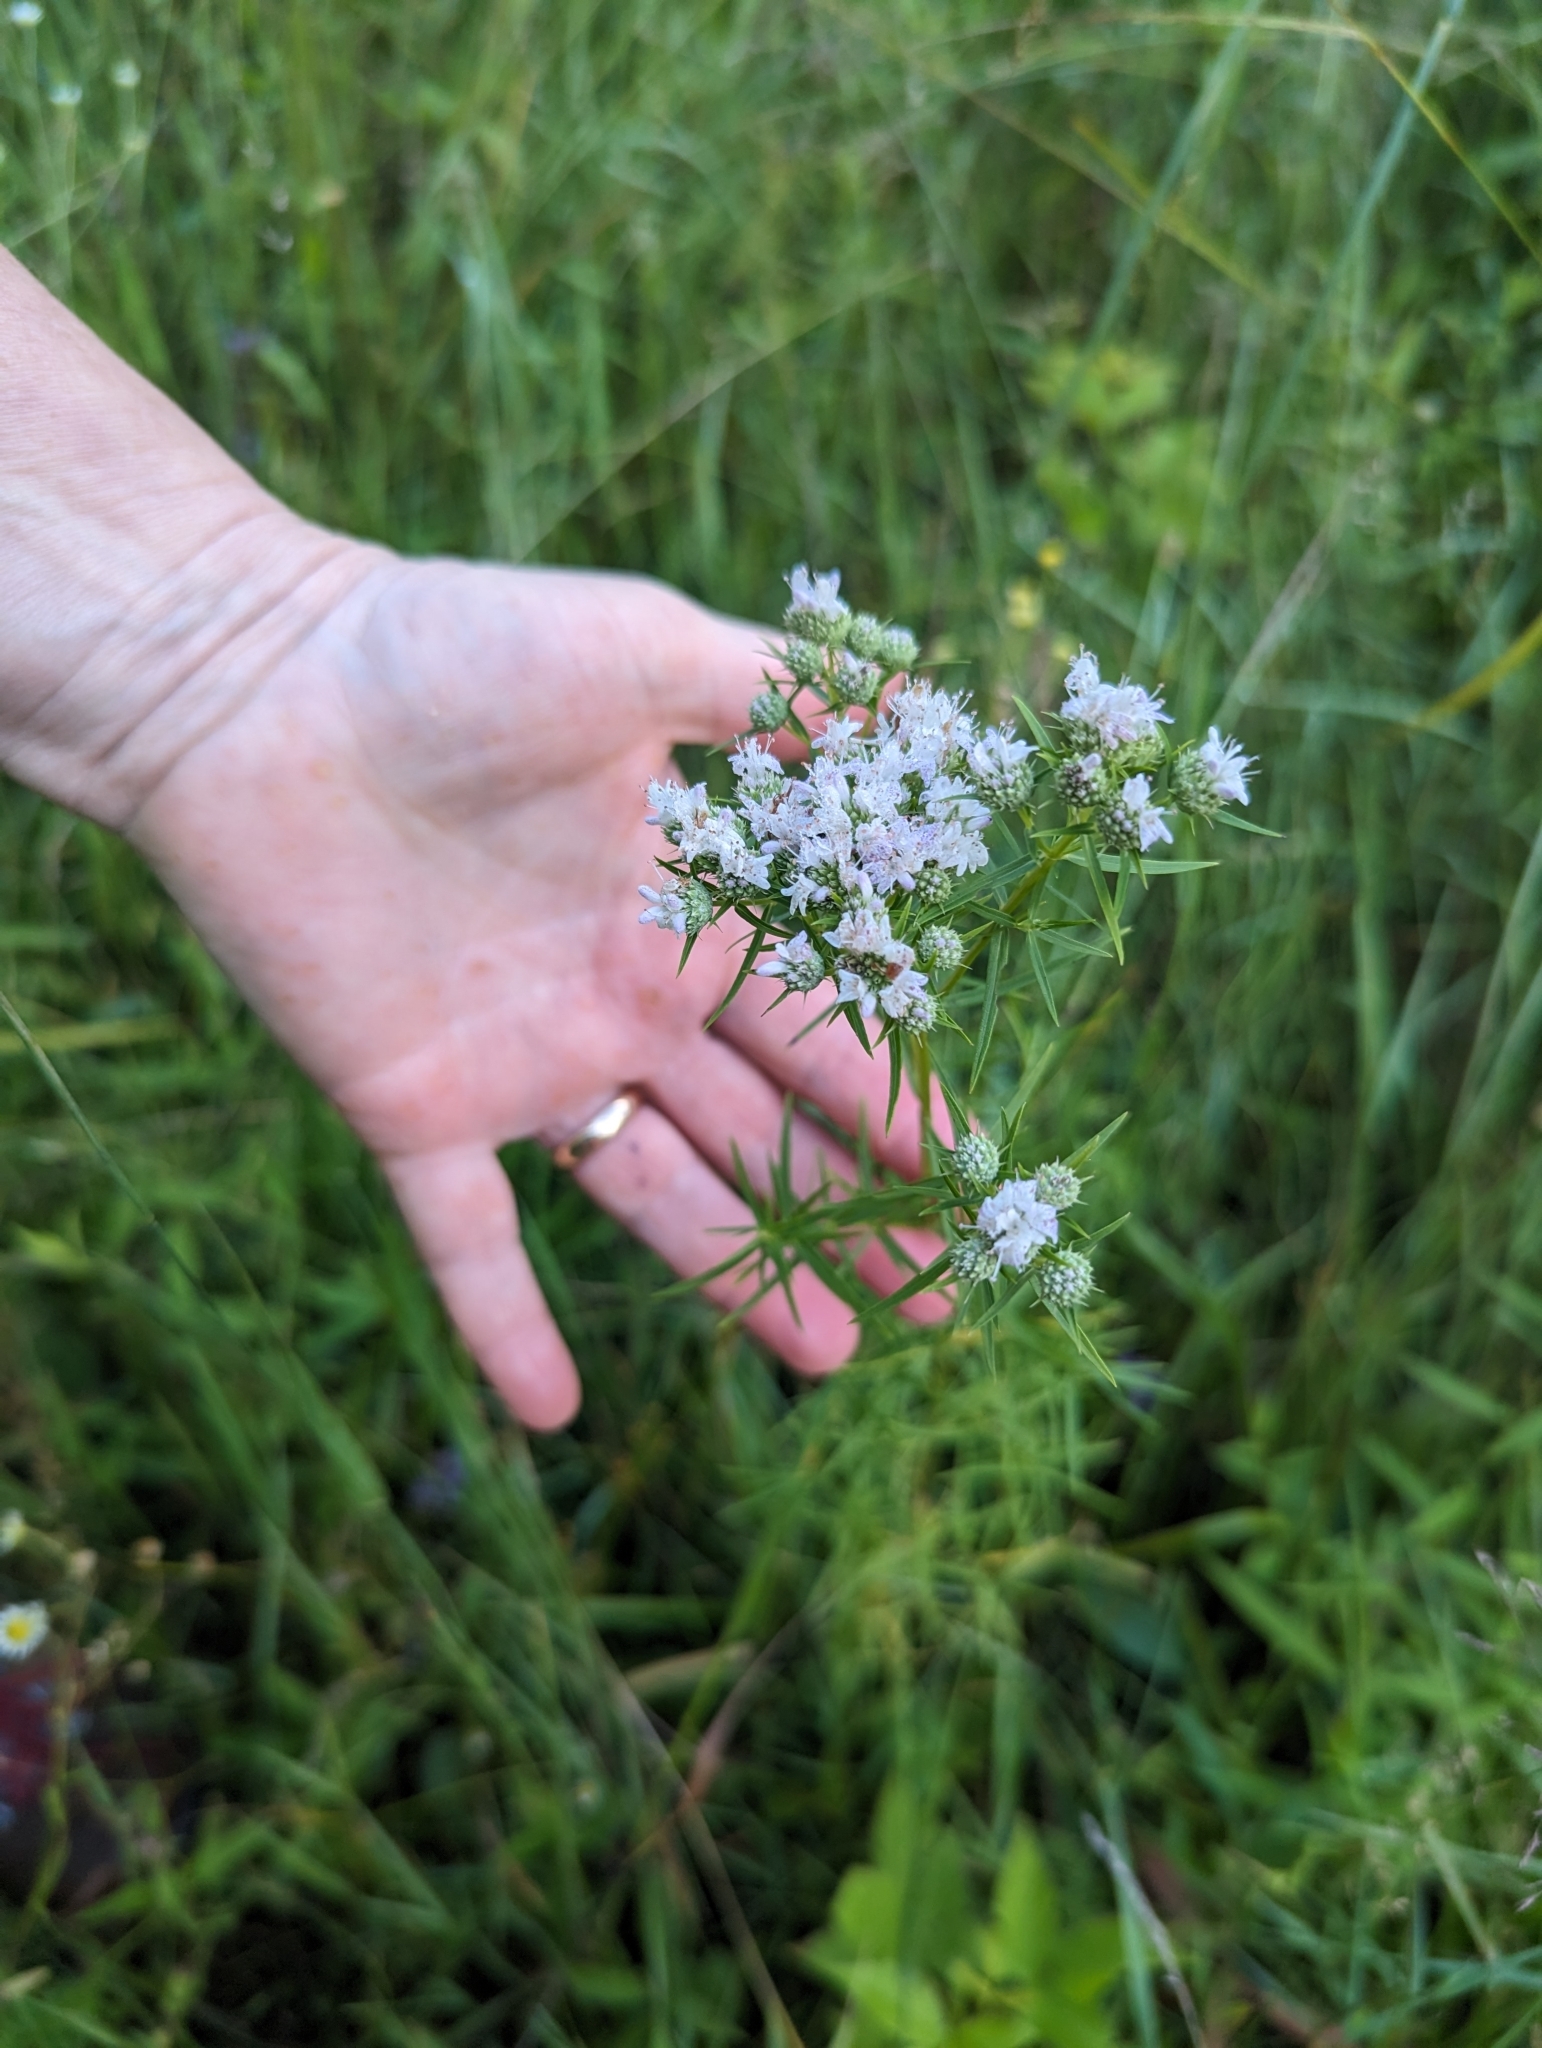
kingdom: Plantae
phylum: Tracheophyta
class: Magnoliopsida
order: Lamiales
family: Lamiaceae
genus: Pycnanthemum
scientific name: Pycnanthemum tenuifolium
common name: Narrow-leaf mountain-mint
